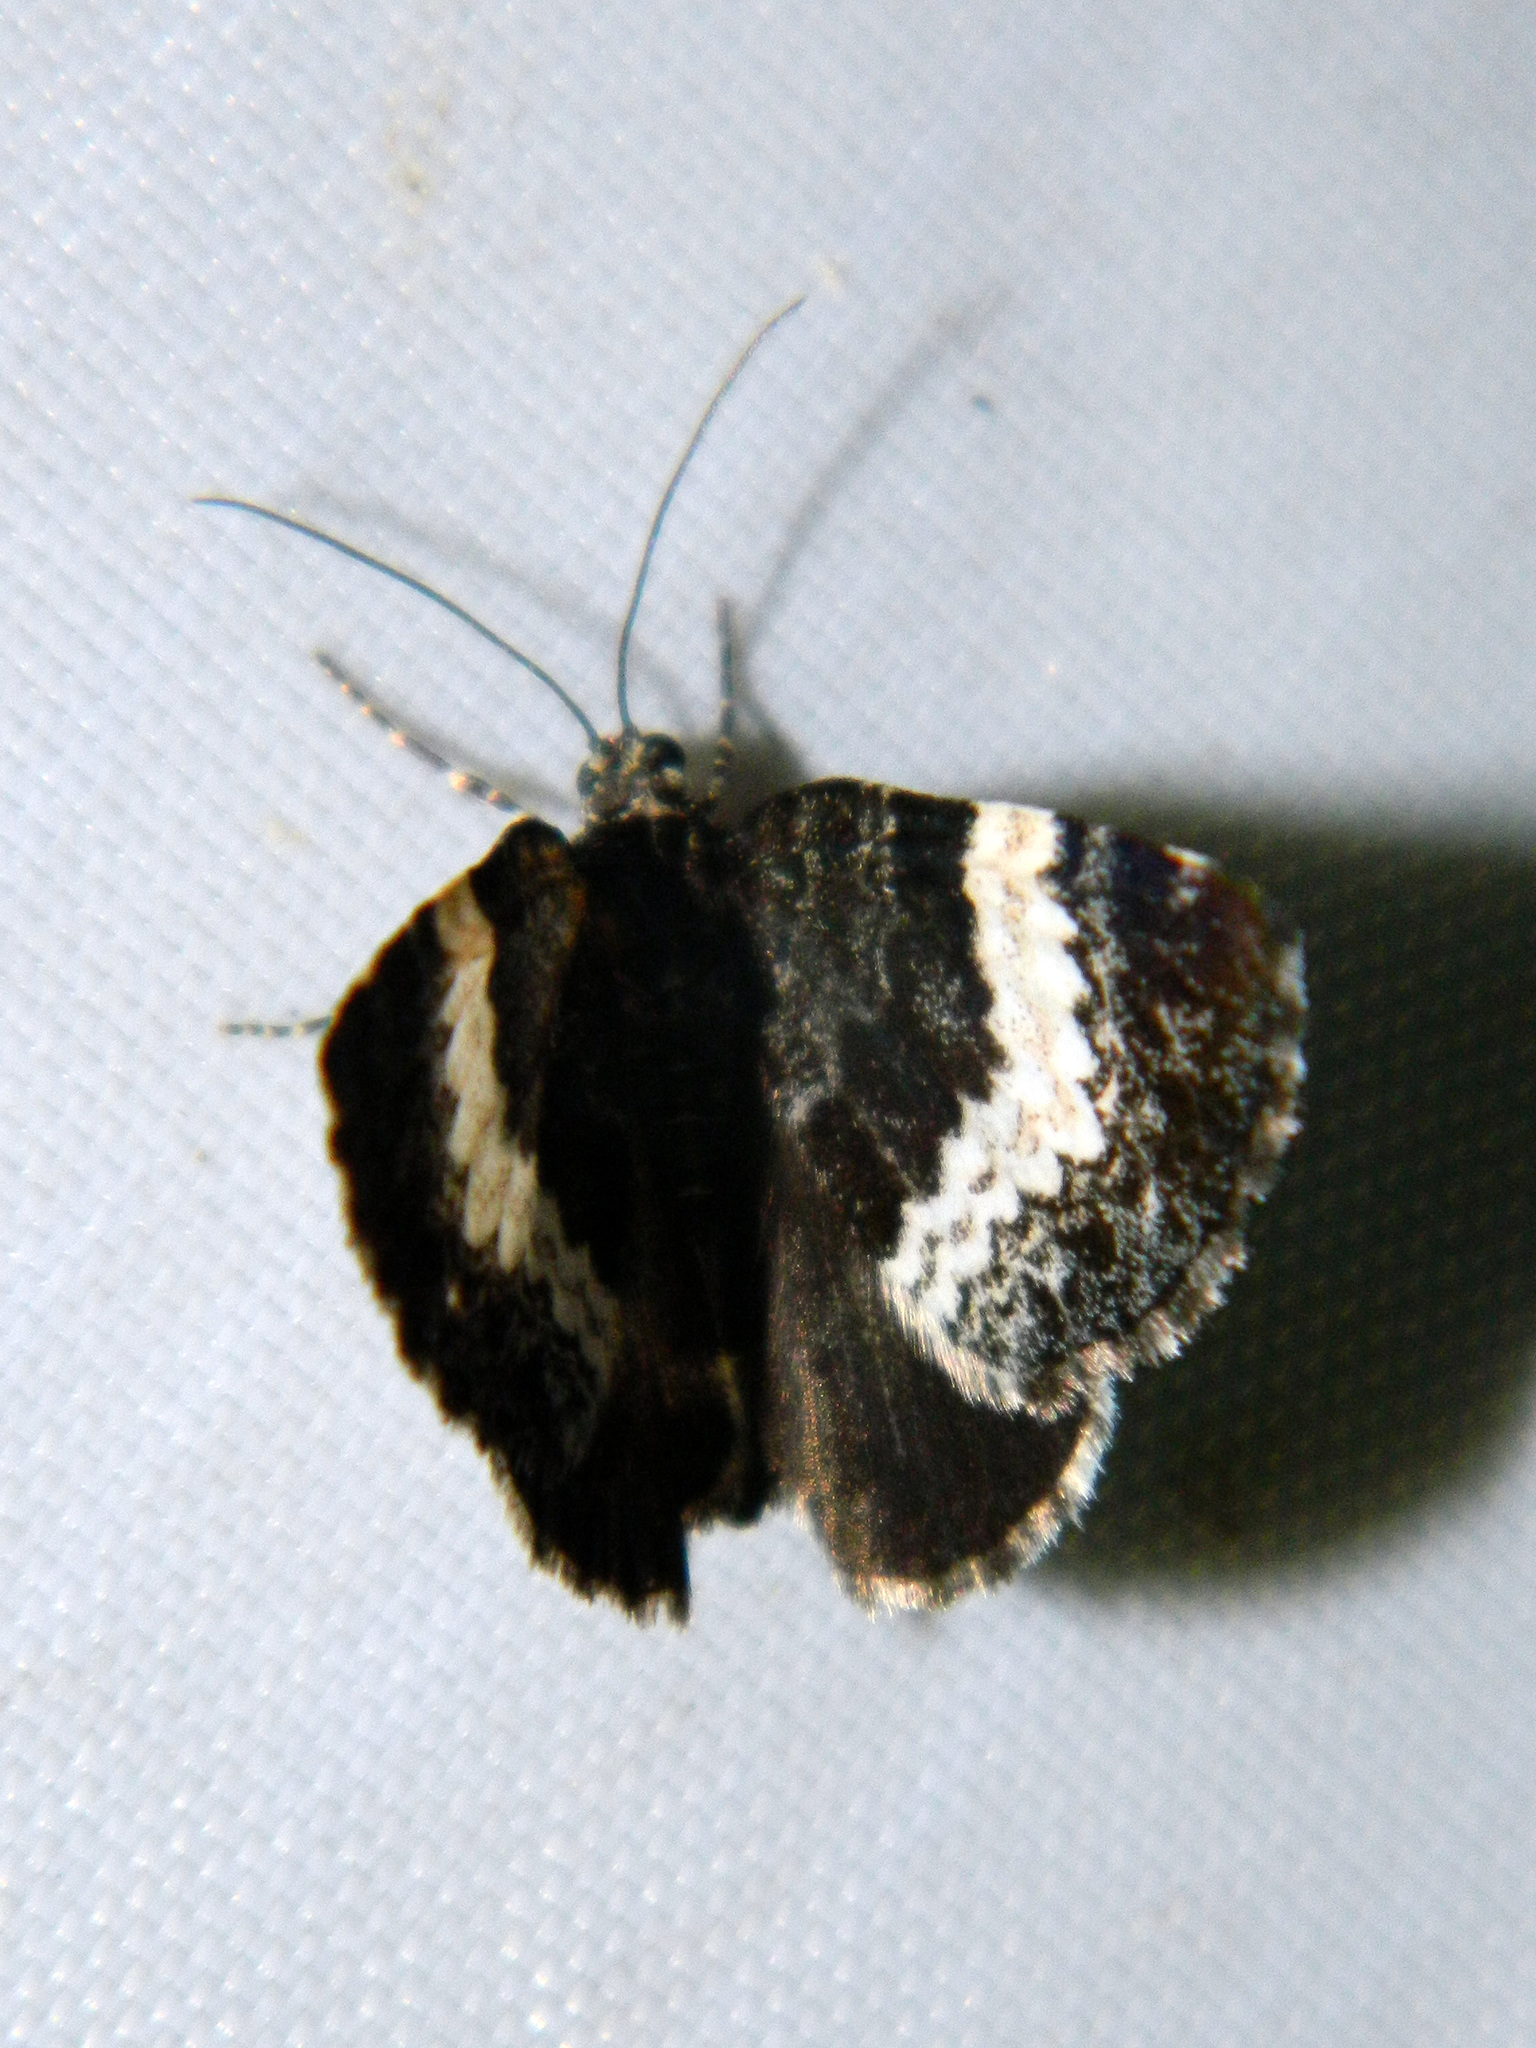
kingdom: Animalia
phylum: Arthropoda
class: Insecta
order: Lepidoptera
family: Geometridae
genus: Spargania
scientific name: Spargania luctuata
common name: White-banded carpet
